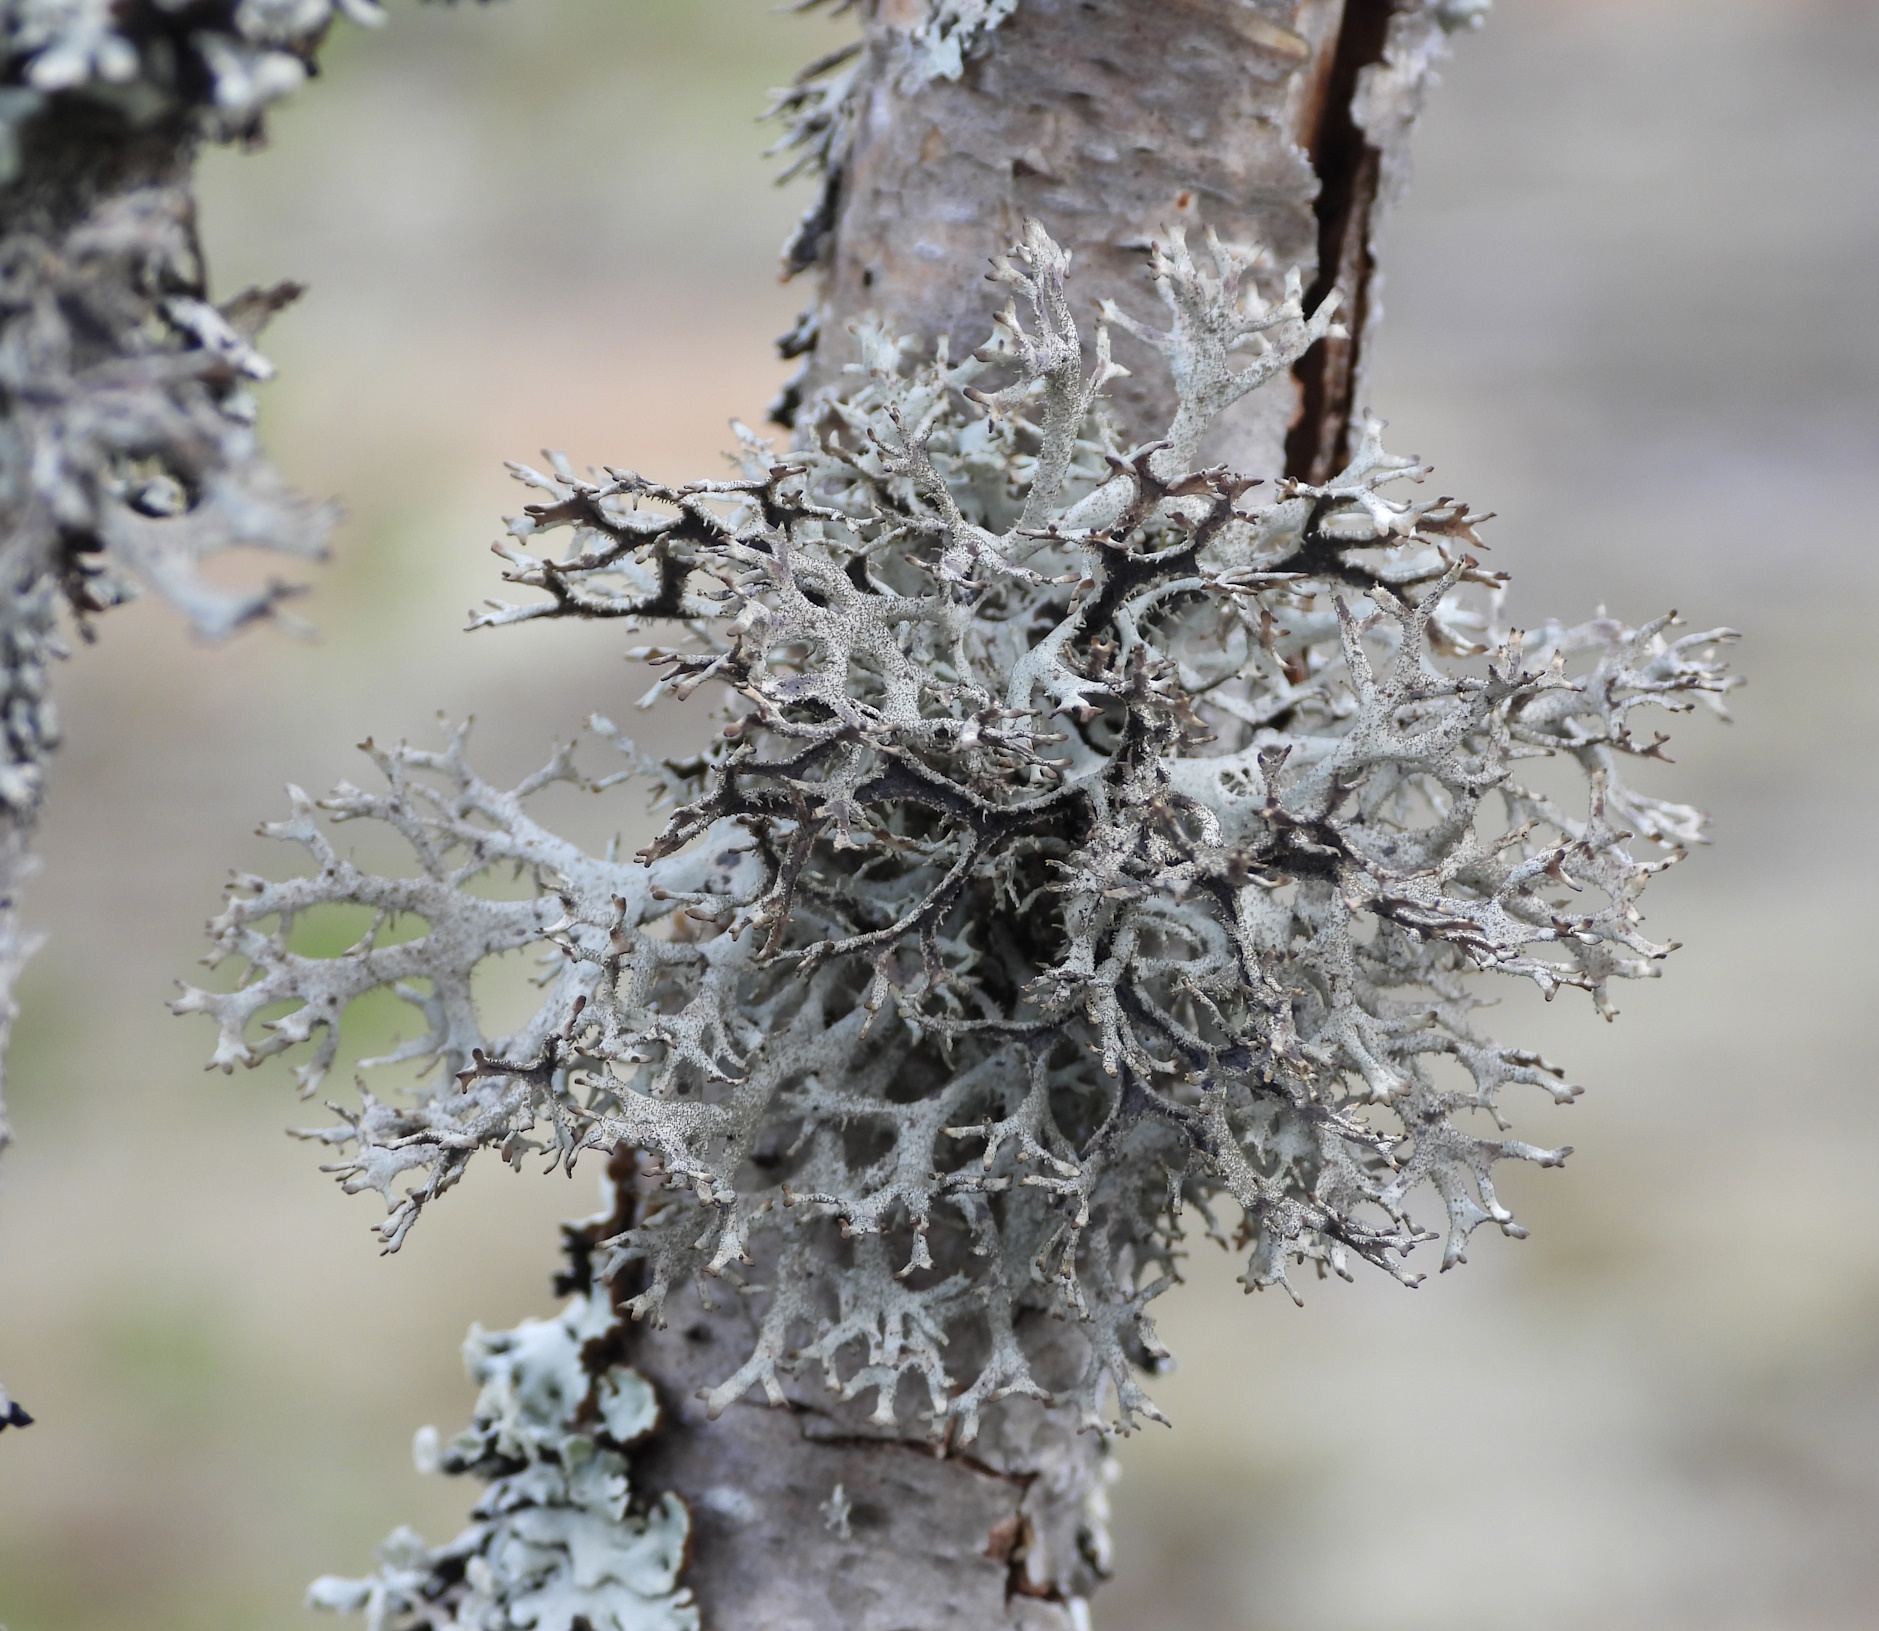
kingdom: Fungi
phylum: Ascomycota
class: Lecanoromycetes
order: Lecanorales
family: Parmeliaceae
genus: Pseudevernia
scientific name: Pseudevernia furfuracea
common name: Tree moss
